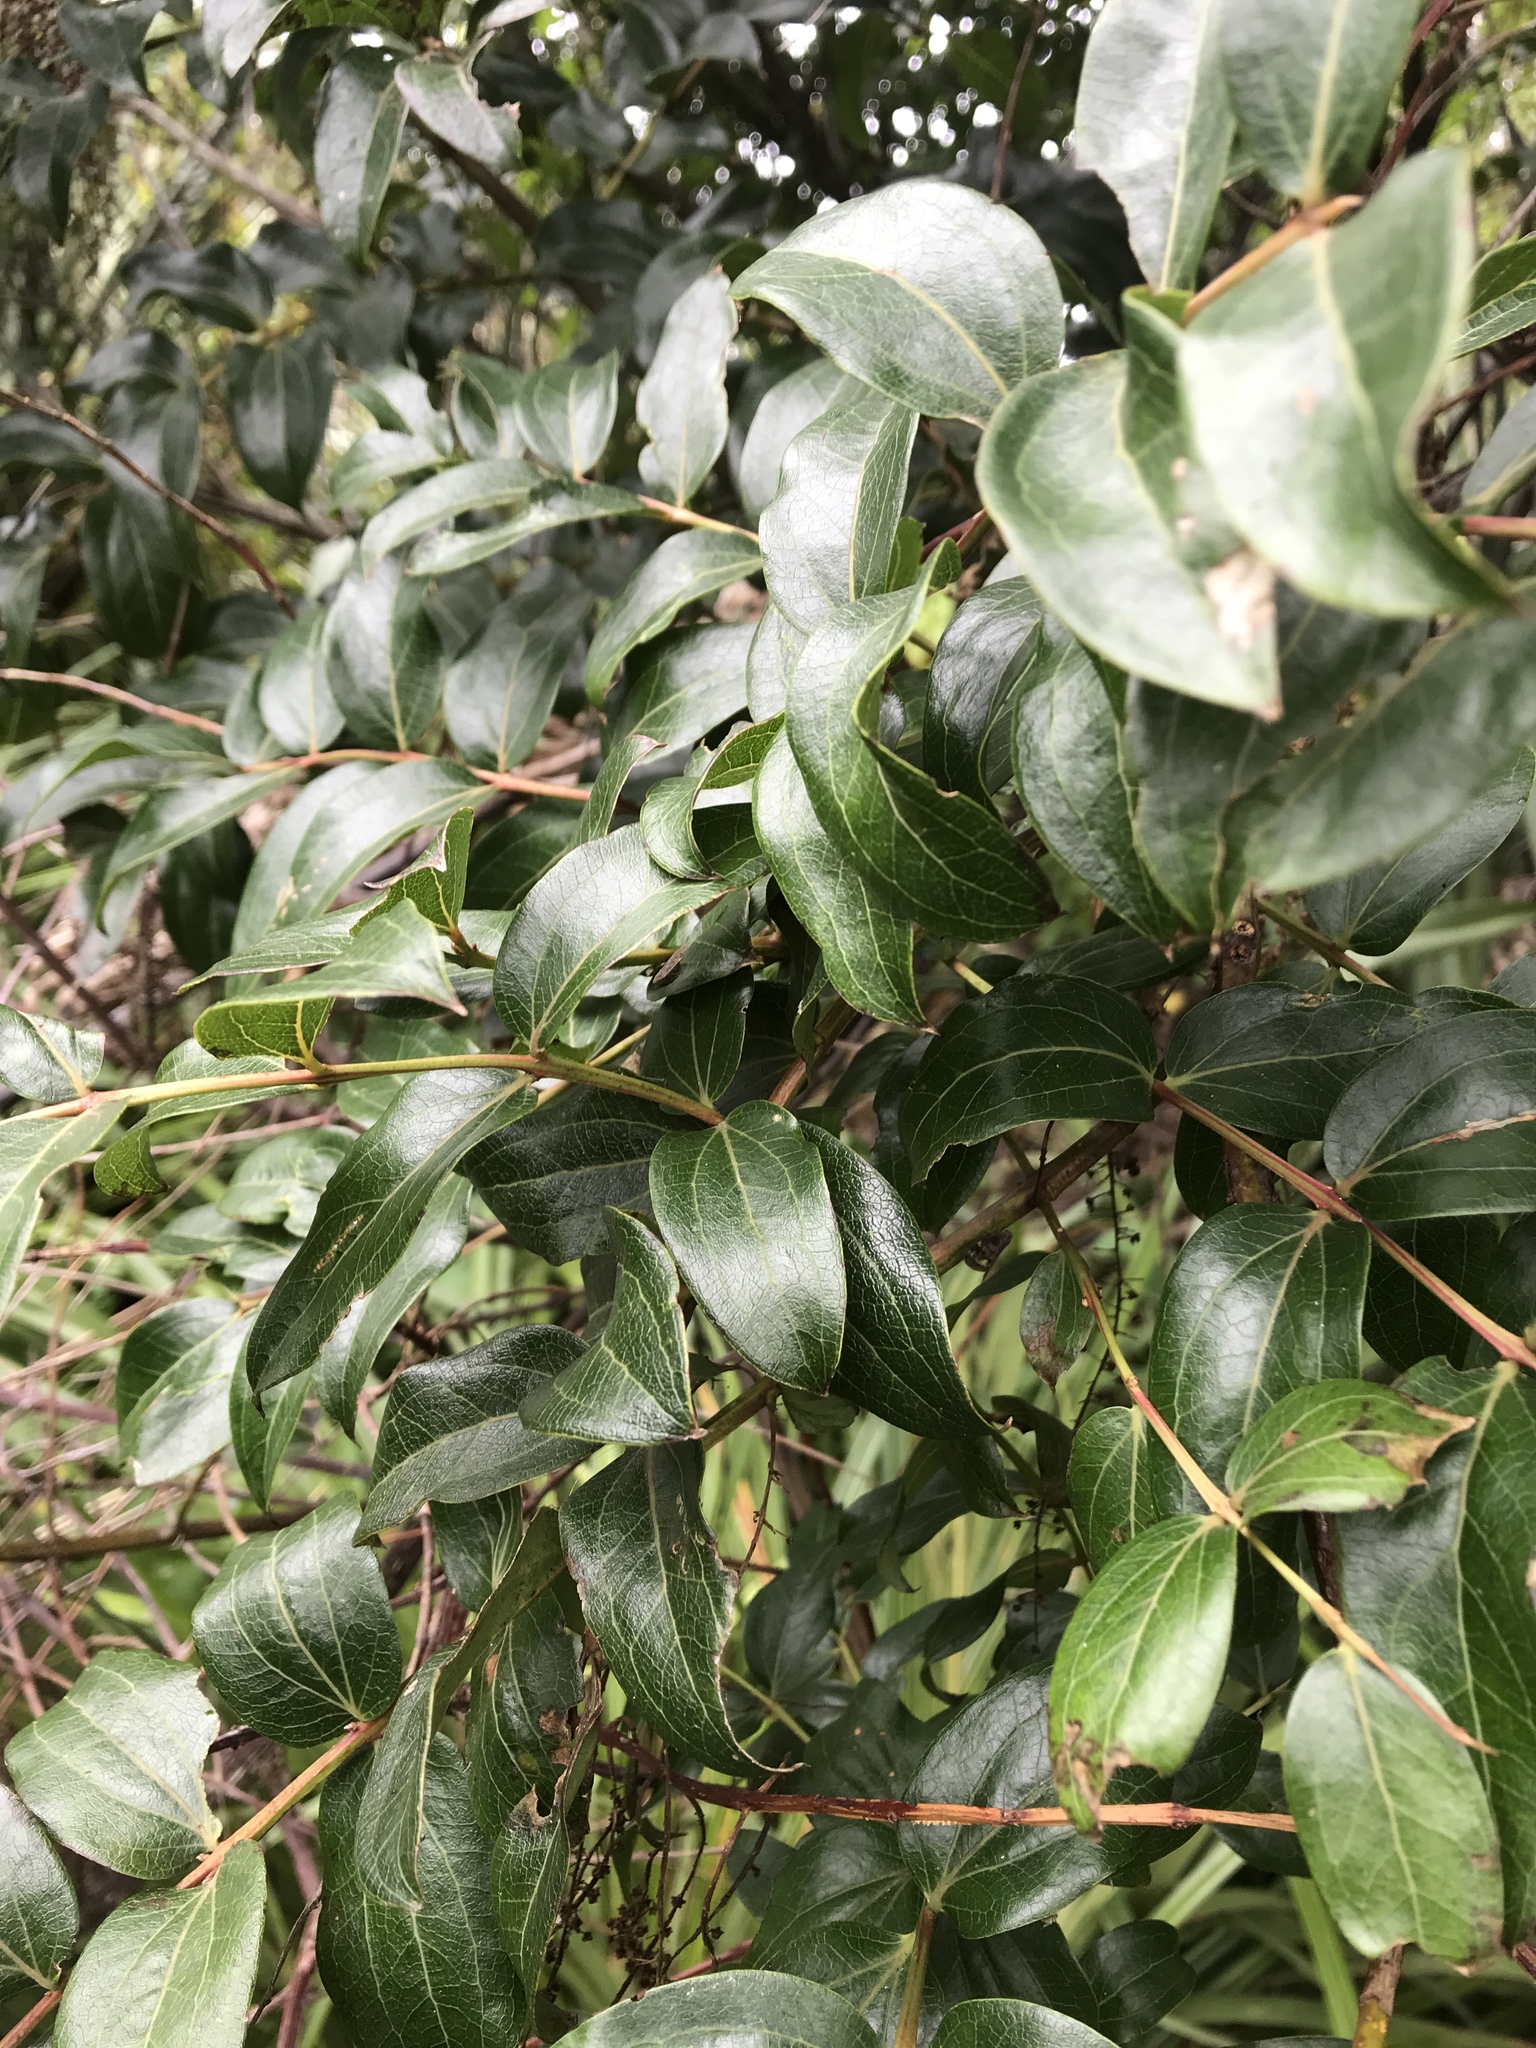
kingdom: Plantae
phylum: Tracheophyta
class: Magnoliopsida
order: Cucurbitales
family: Coriariaceae
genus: Coriaria
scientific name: Coriaria arborea
